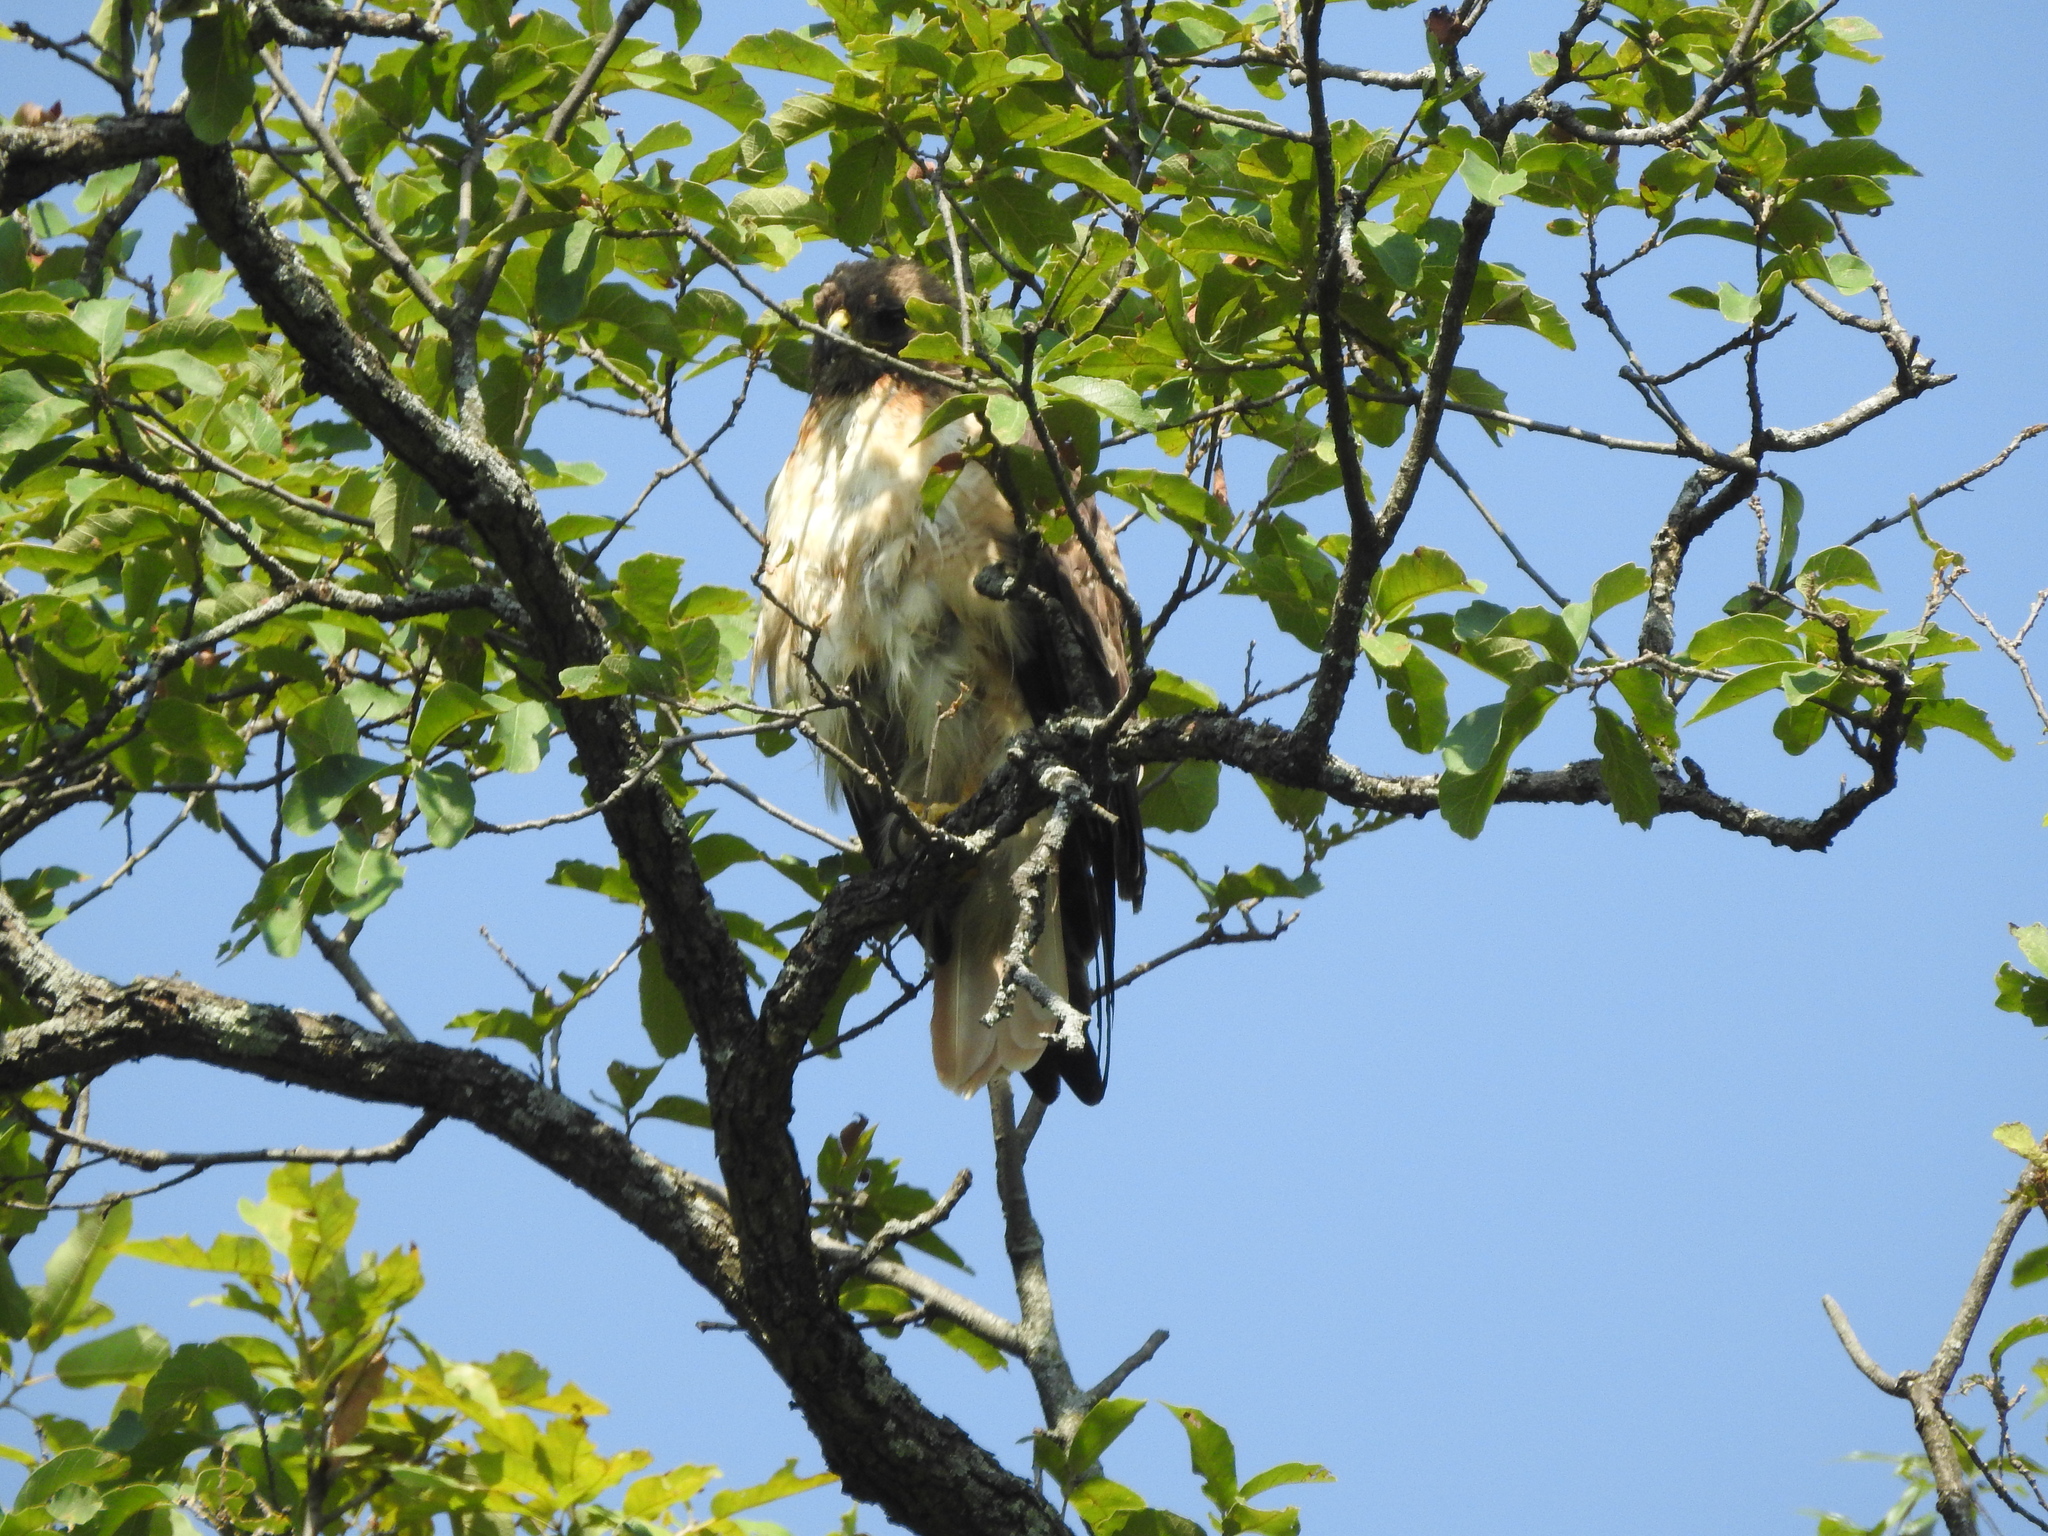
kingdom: Animalia
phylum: Chordata
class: Aves
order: Accipitriformes
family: Accipitridae
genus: Buteo
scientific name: Buteo jamaicensis
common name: Red-tailed hawk
